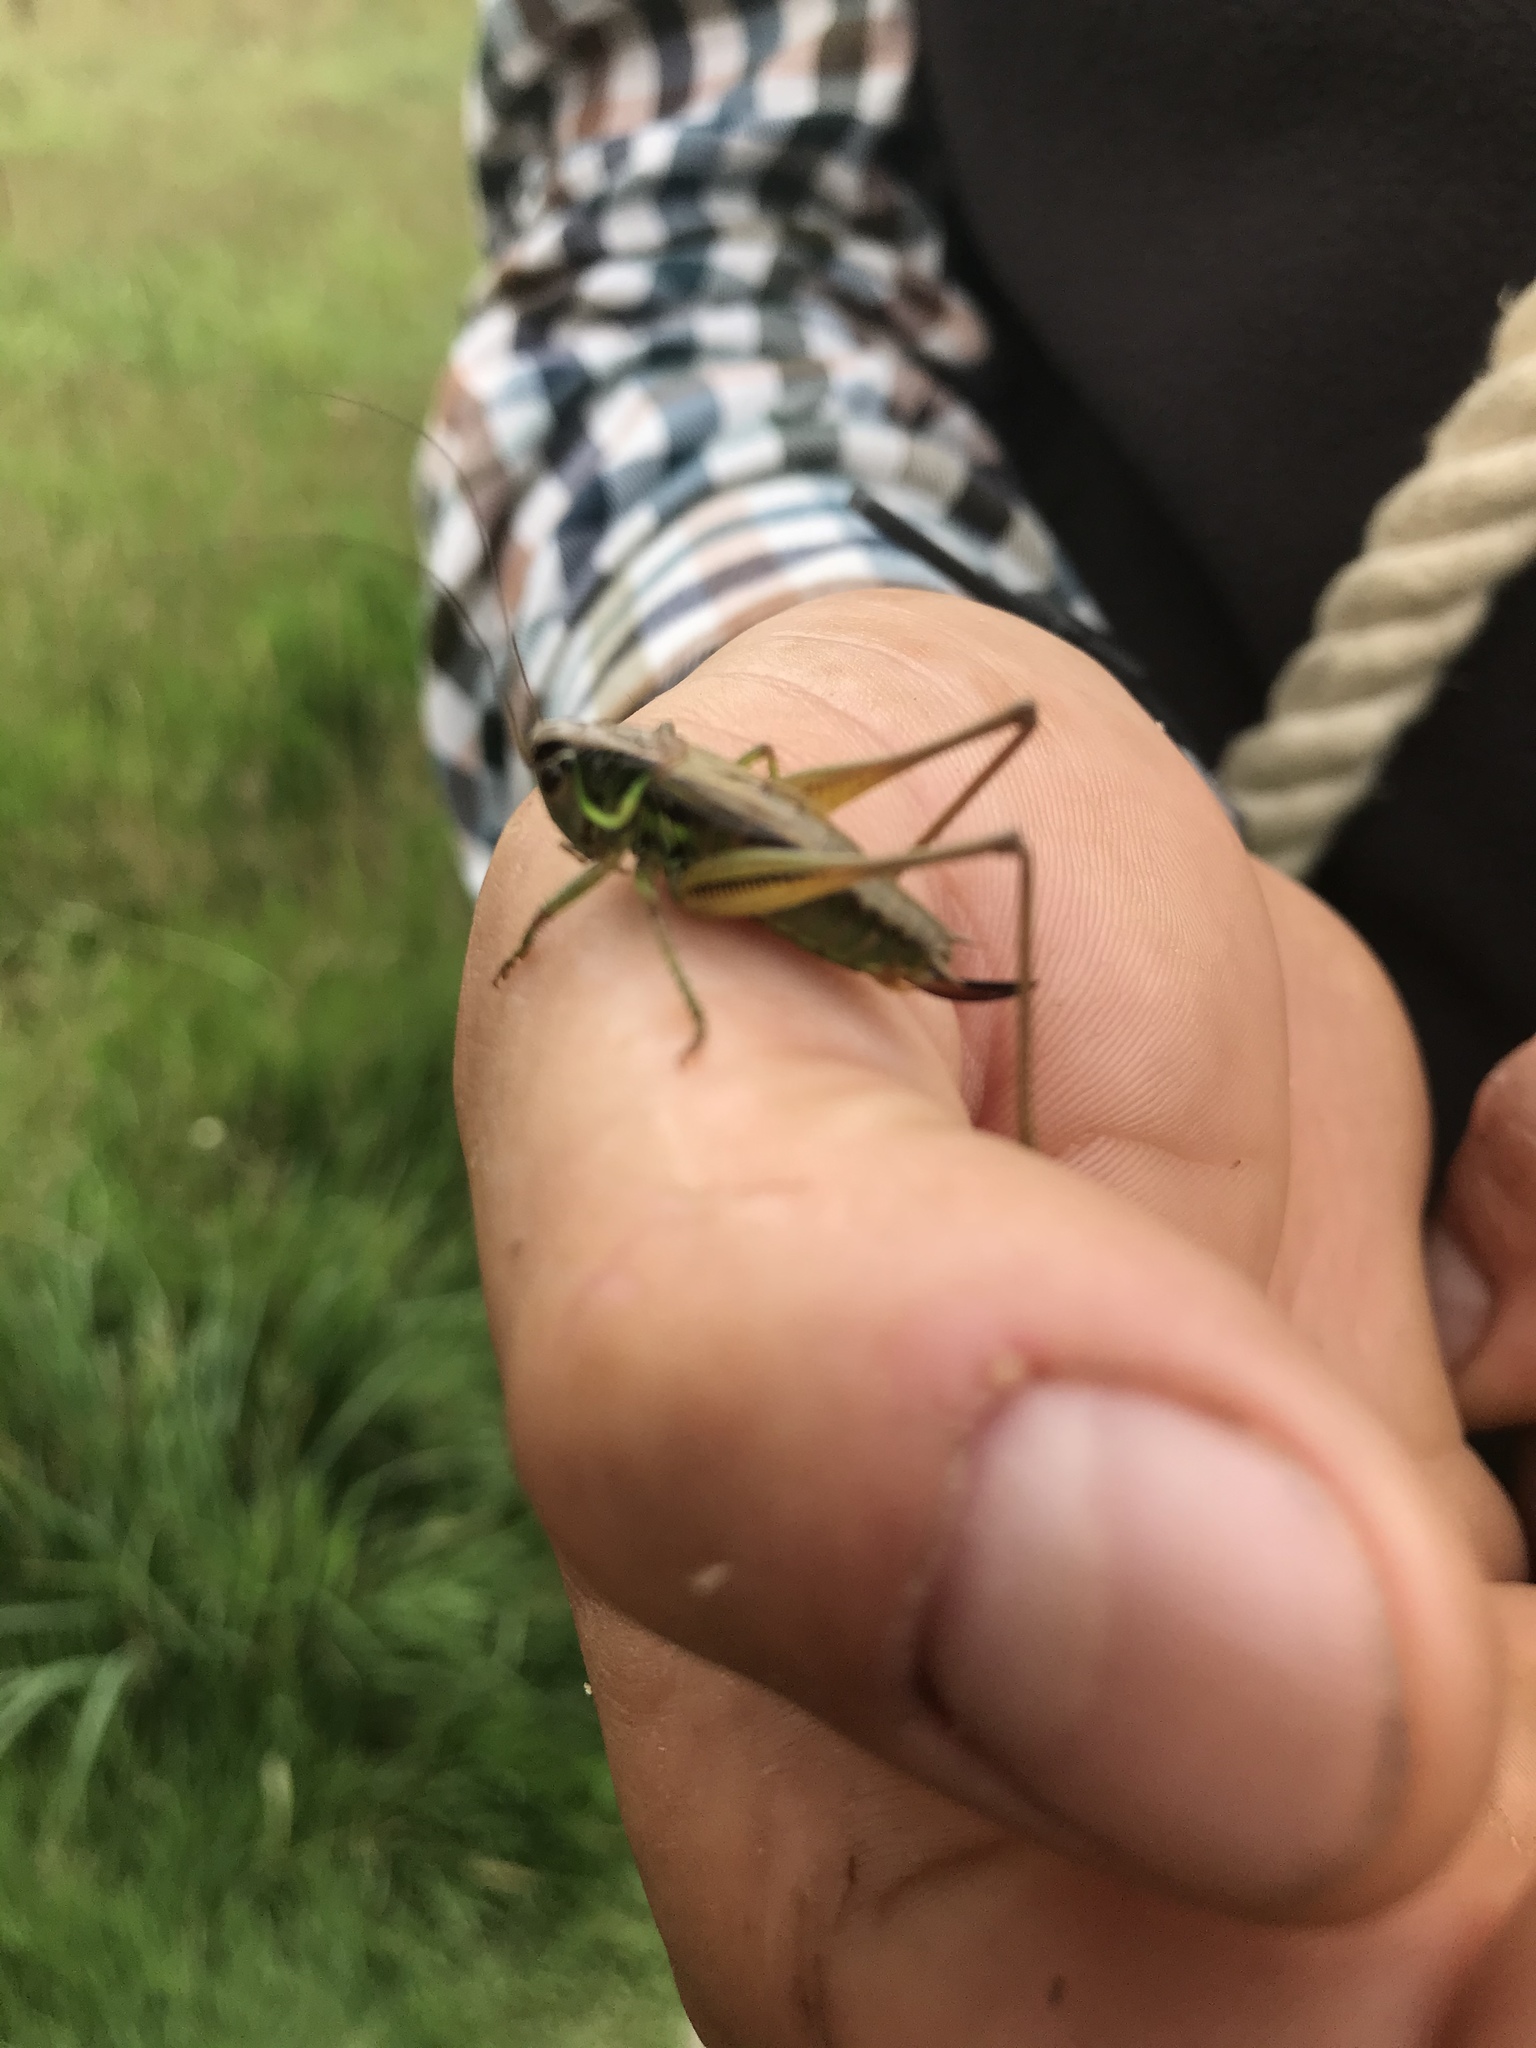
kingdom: Animalia
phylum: Arthropoda
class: Insecta
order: Orthoptera
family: Tettigoniidae
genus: Roeseliana
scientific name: Roeseliana roeselii
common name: Roesel's bush cricket
